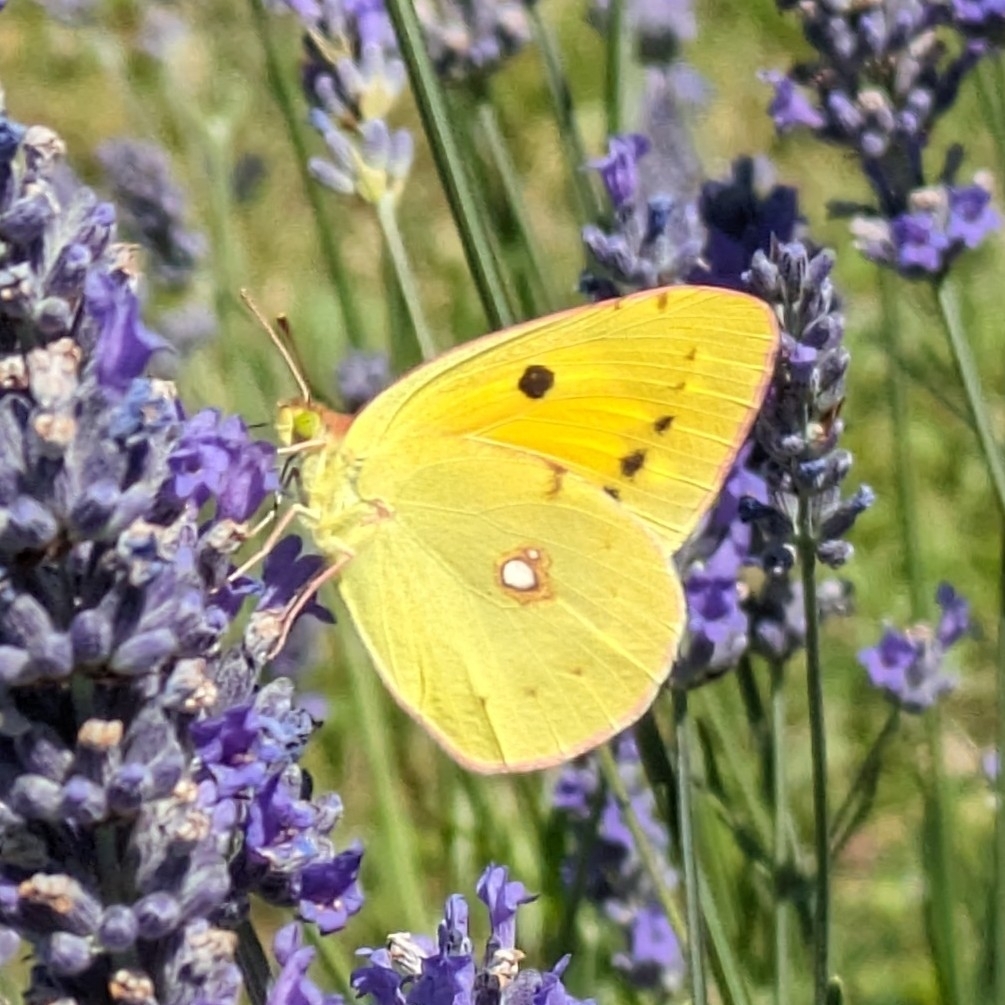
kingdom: Animalia
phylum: Arthropoda
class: Insecta
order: Lepidoptera
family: Pieridae
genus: Colias
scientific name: Colias croceus
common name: Clouded yellow
